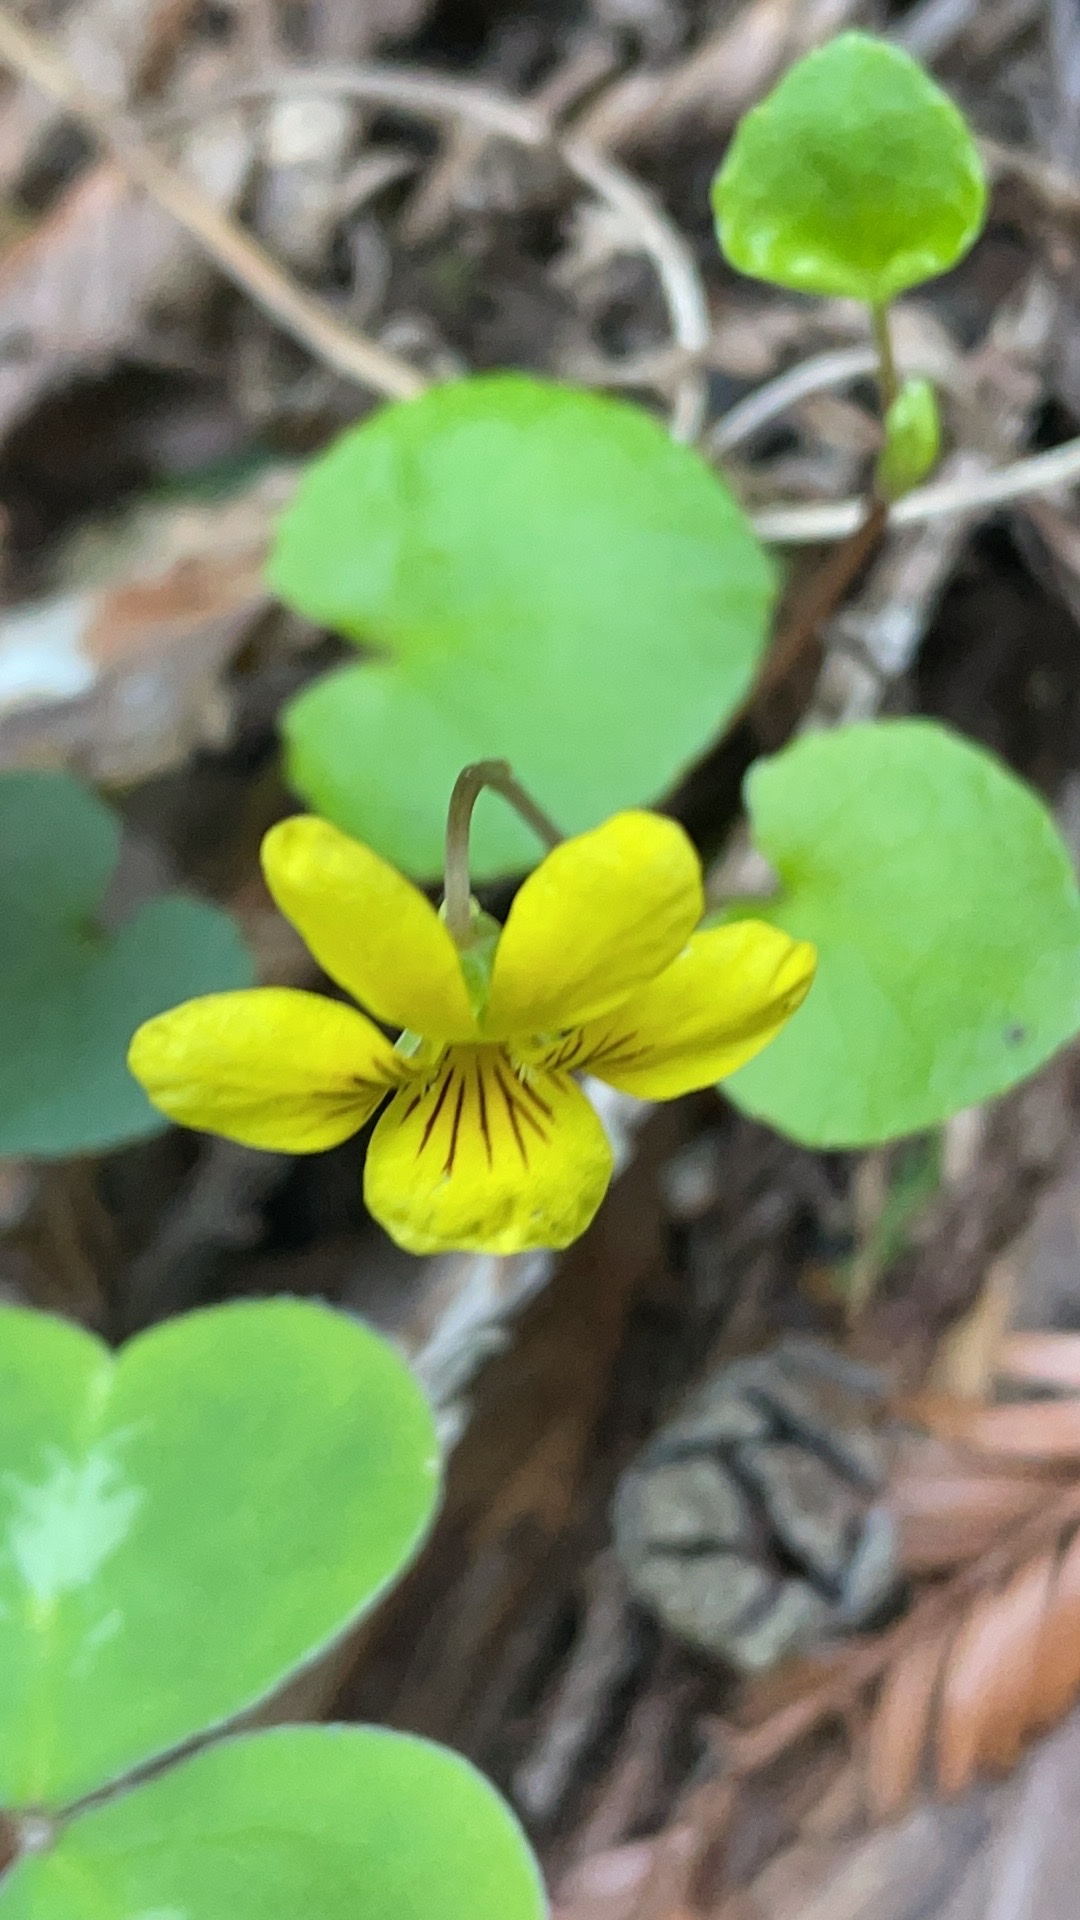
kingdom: Plantae
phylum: Tracheophyta
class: Magnoliopsida
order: Malpighiales
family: Violaceae
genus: Viola
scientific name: Viola sempervirens
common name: Evergreen violet
